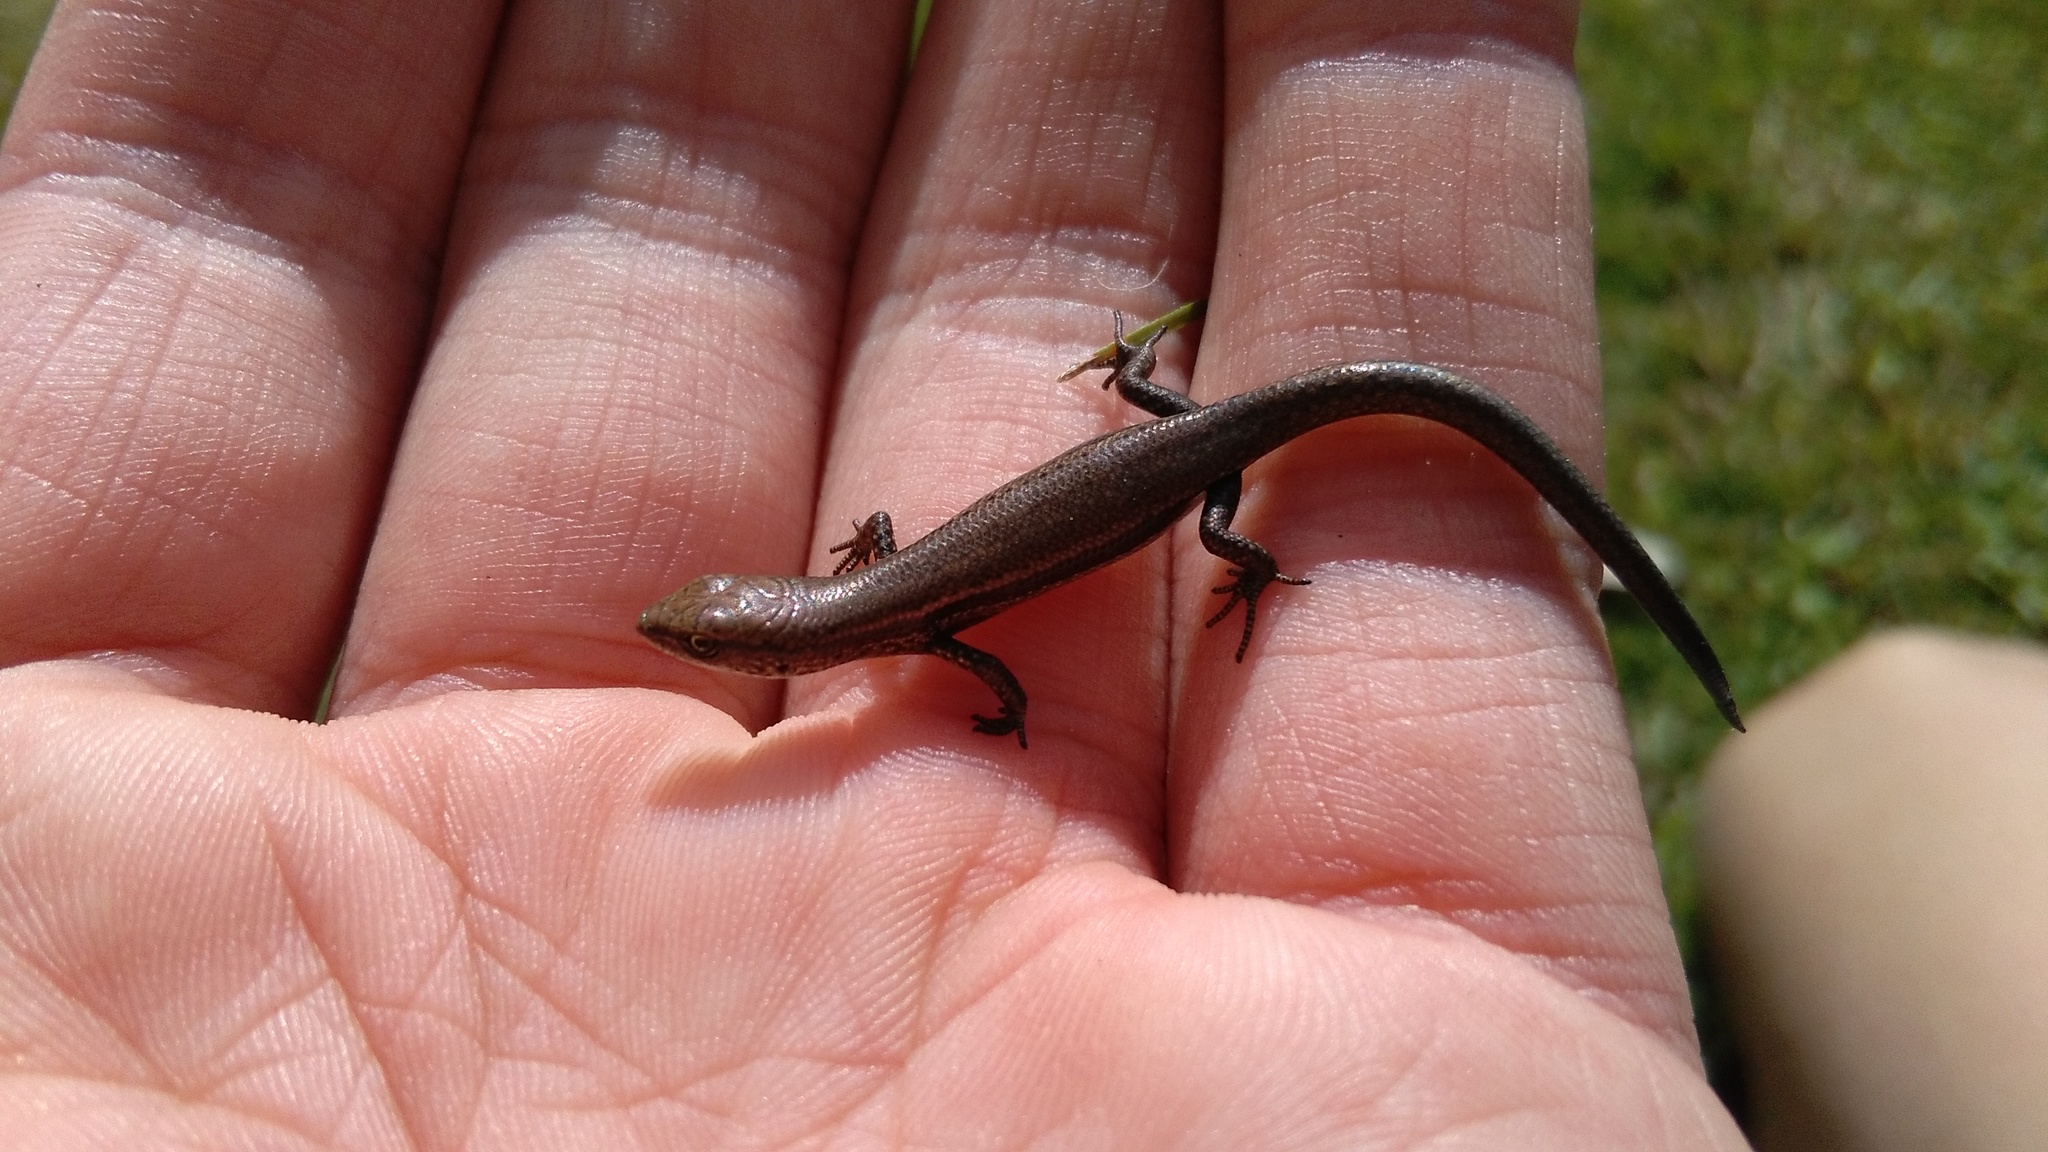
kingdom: Animalia
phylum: Chordata
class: Squamata
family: Scincidae
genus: Lampropholis
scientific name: Lampropholis delicata
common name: Plague skink
